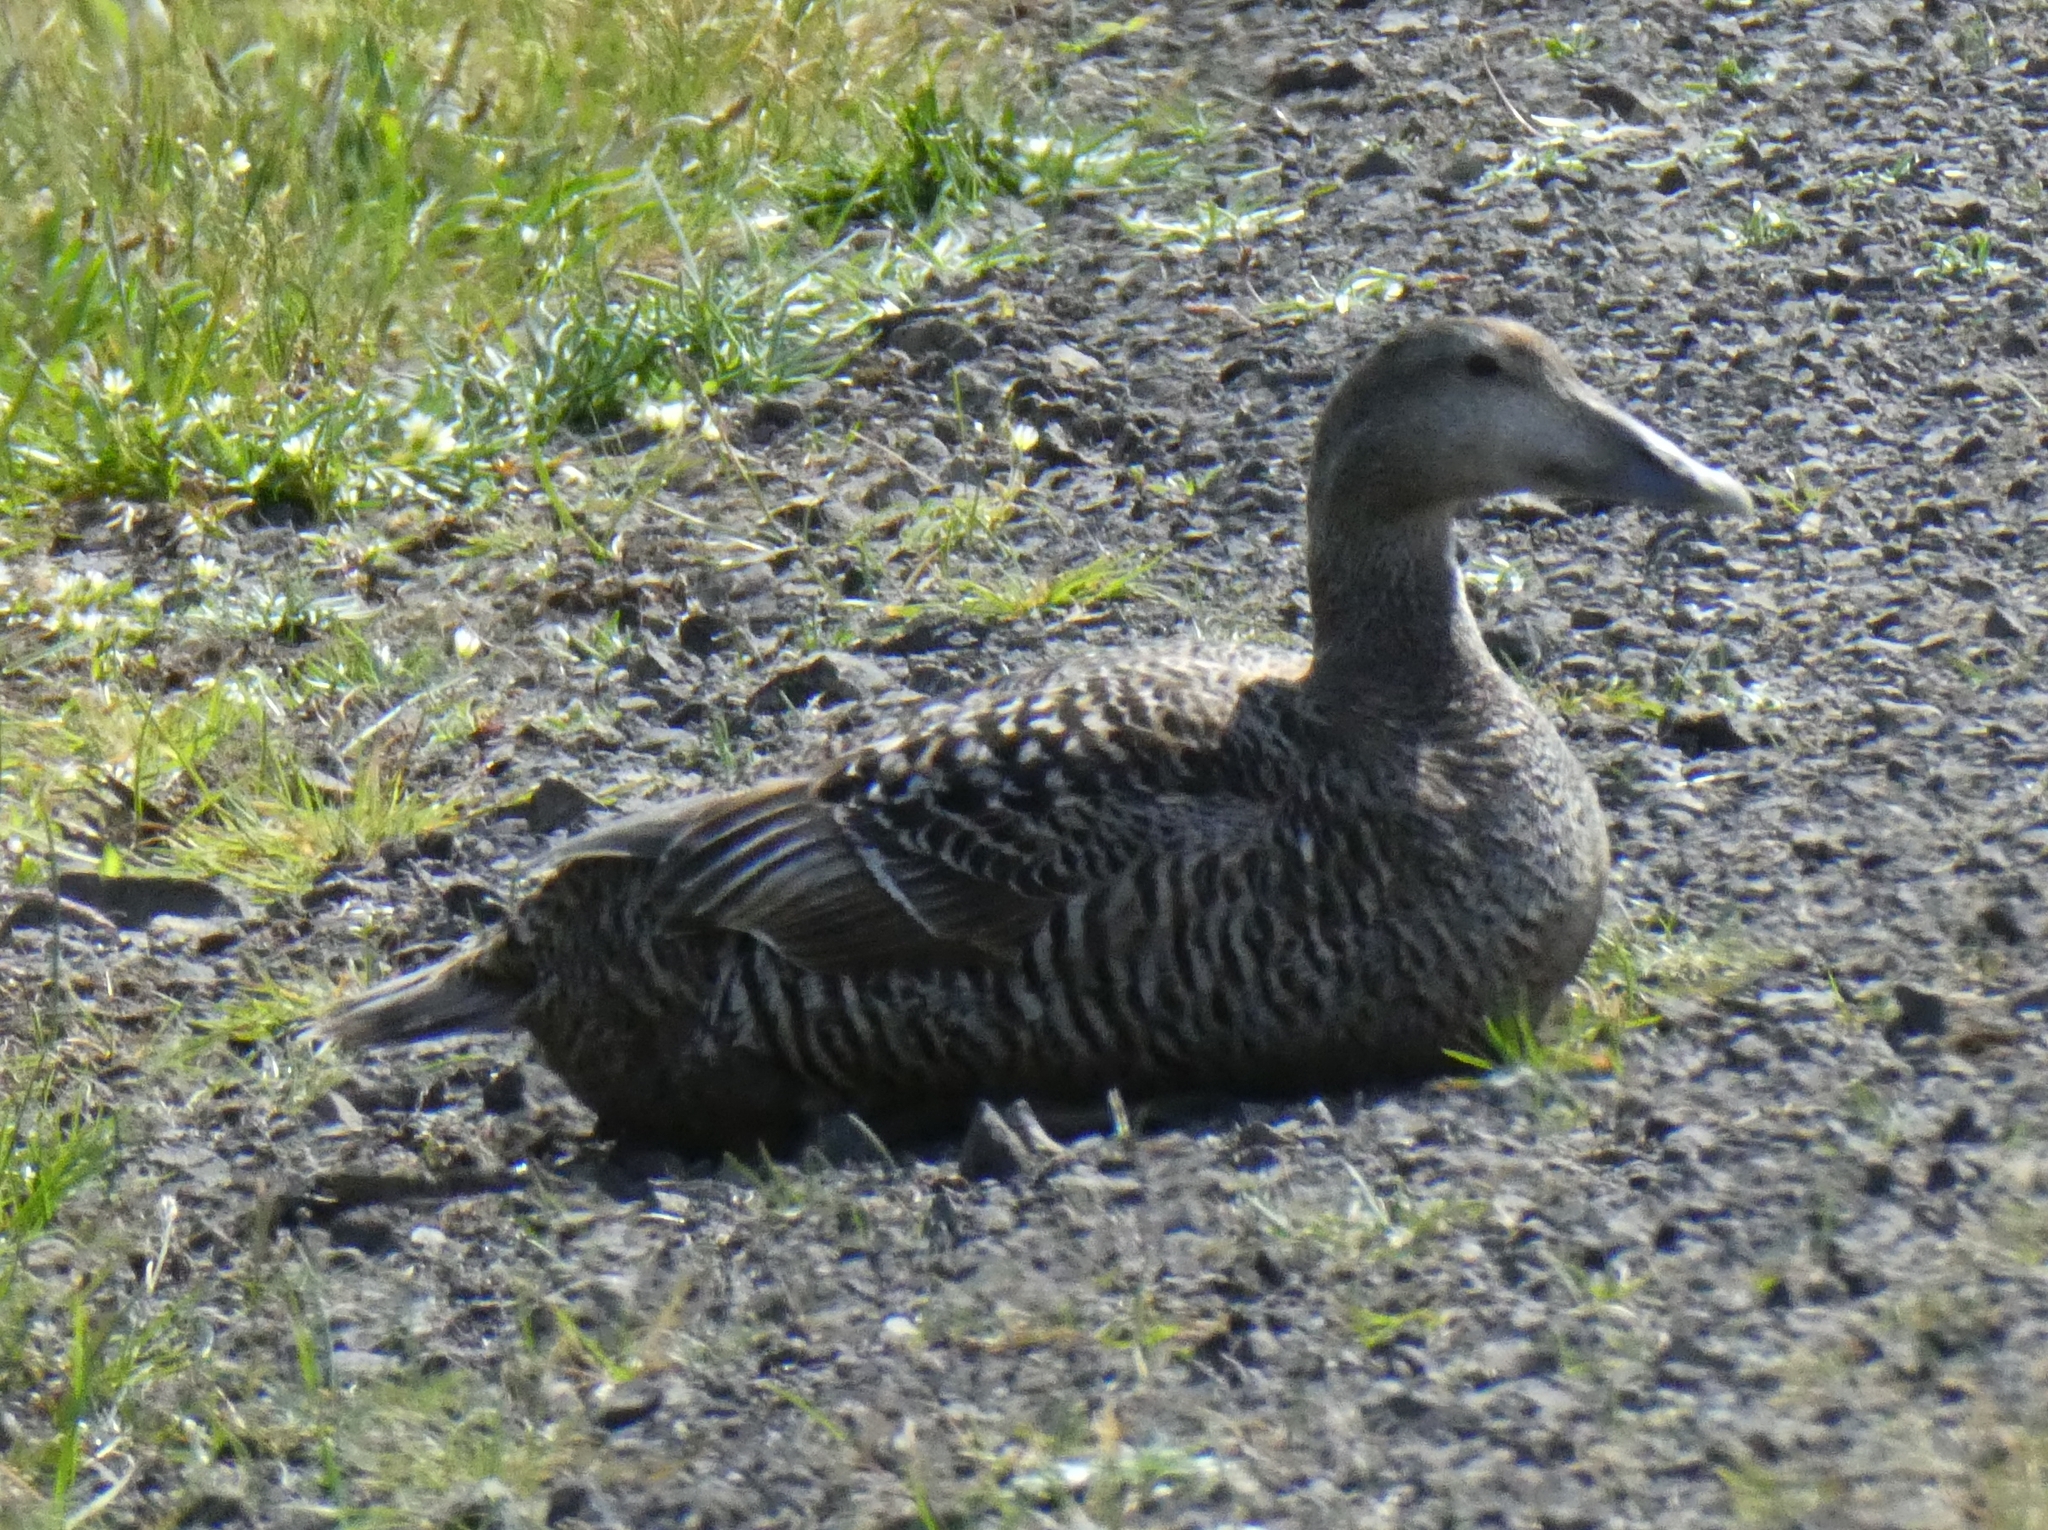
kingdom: Animalia
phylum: Chordata
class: Aves
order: Anseriformes
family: Anatidae
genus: Somateria
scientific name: Somateria mollissima
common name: Common eider
